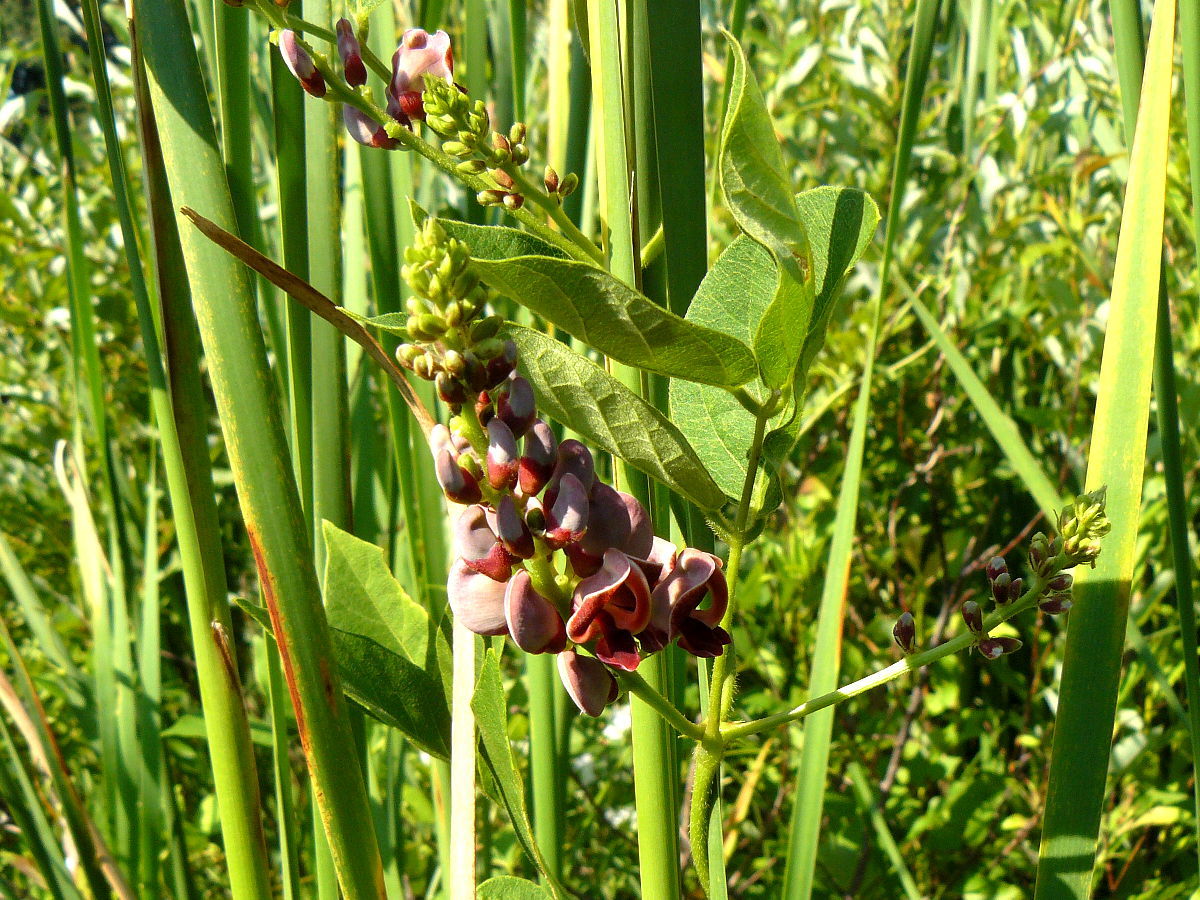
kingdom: Plantae
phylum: Tracheophyta
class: Magnoliopsida
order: Fabales
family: Fabaceae
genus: Apios
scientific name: Apios americana
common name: American potato-bean
